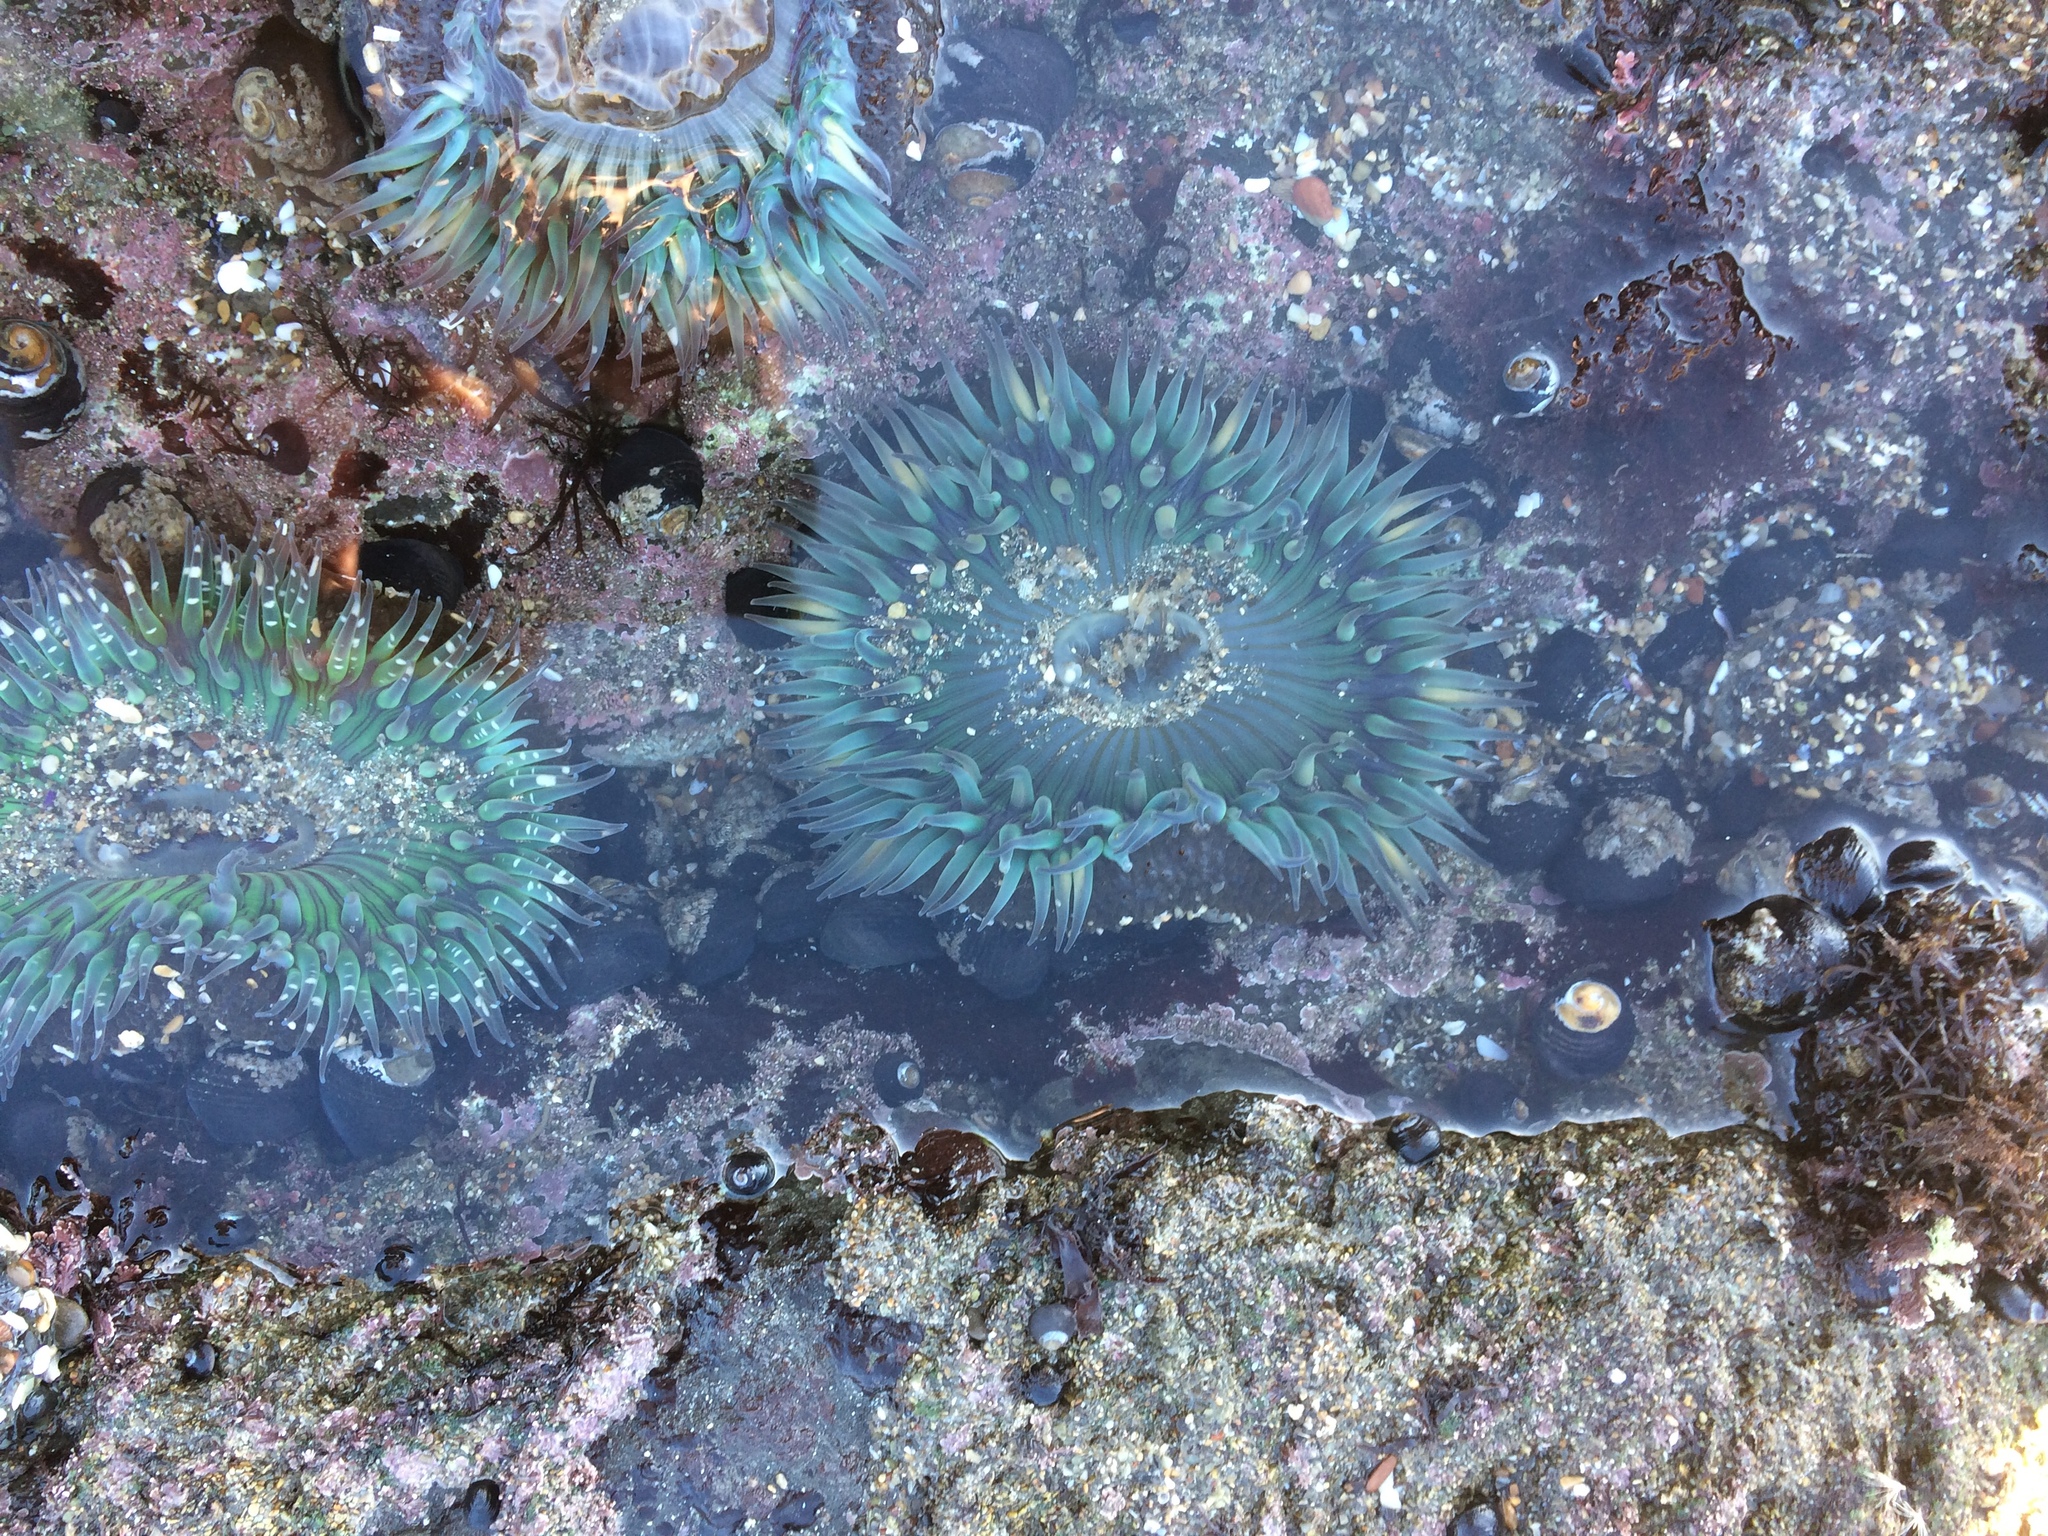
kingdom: Animalia
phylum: Cnidaria
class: Anthozoa
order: Actiniaria
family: Actiniidae
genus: Anthopleura
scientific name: Anthopleura sola
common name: Sun anemone
